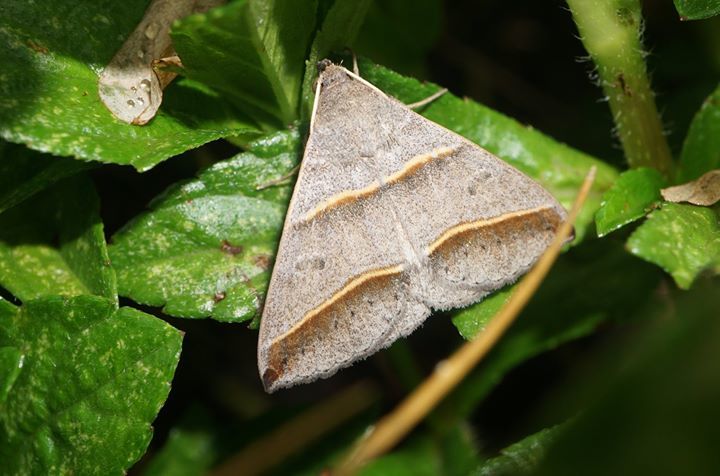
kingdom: Animalia
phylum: Arthropoda
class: Insecta
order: Lepidoptera
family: Erebidae
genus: Ptichodis
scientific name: Ptichodis vinculum
